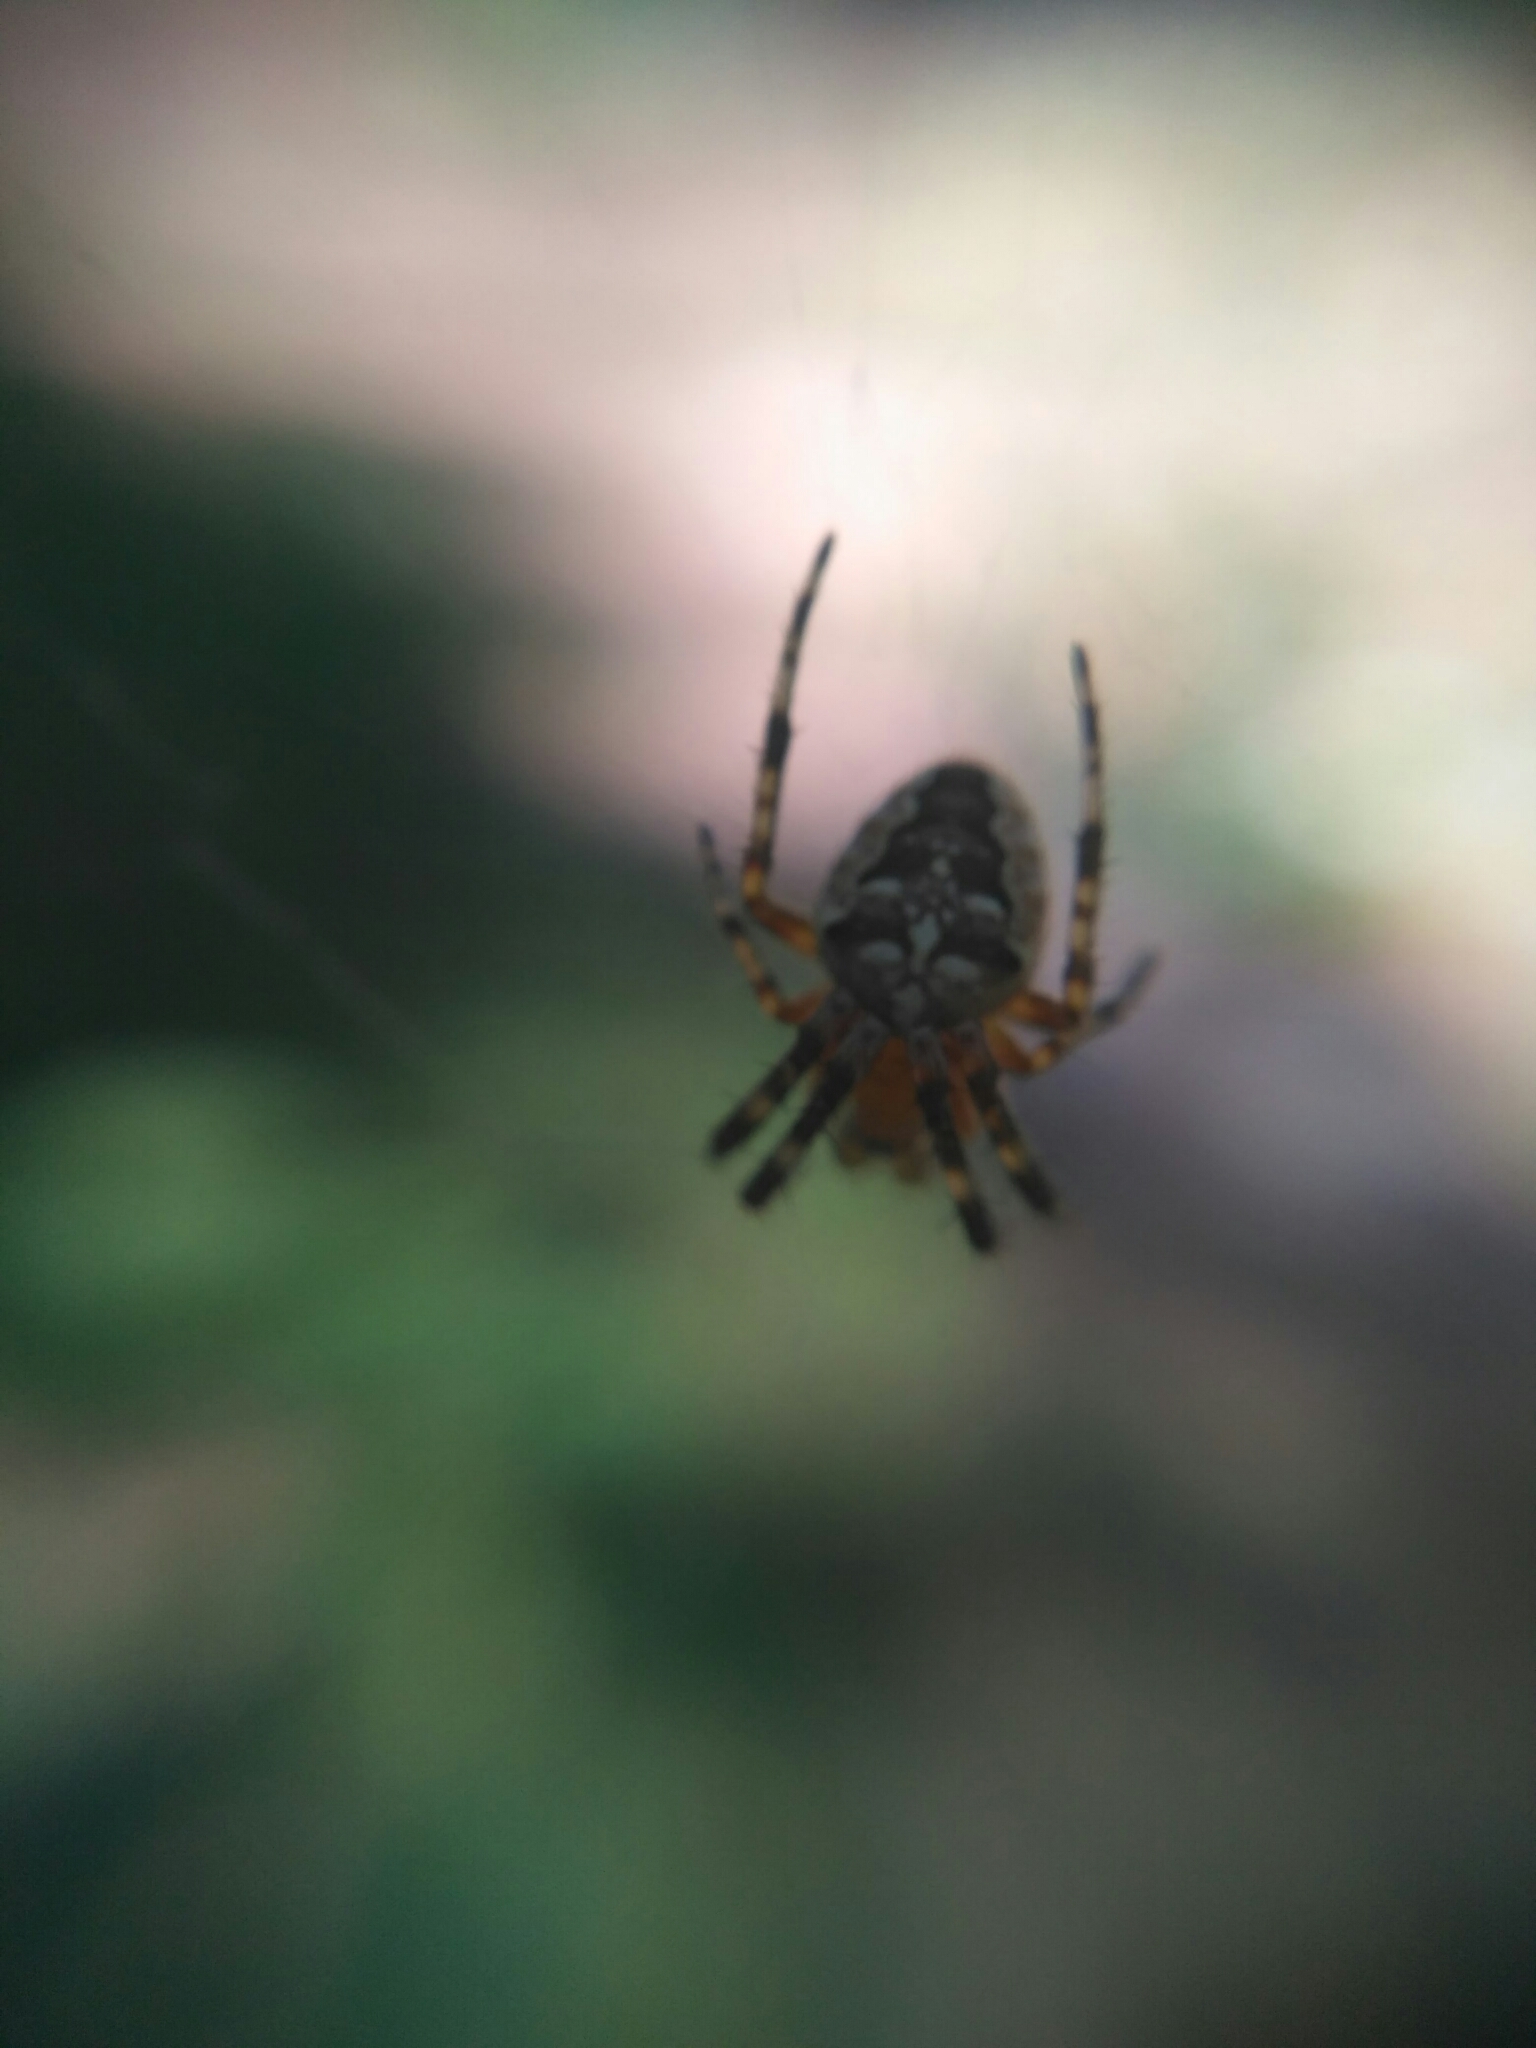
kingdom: Animalia
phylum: Arthropoda
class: Arachnida
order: Araneae
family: Araneidae
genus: Araneus
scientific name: Araneus diadematus
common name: Cross orbweaver
